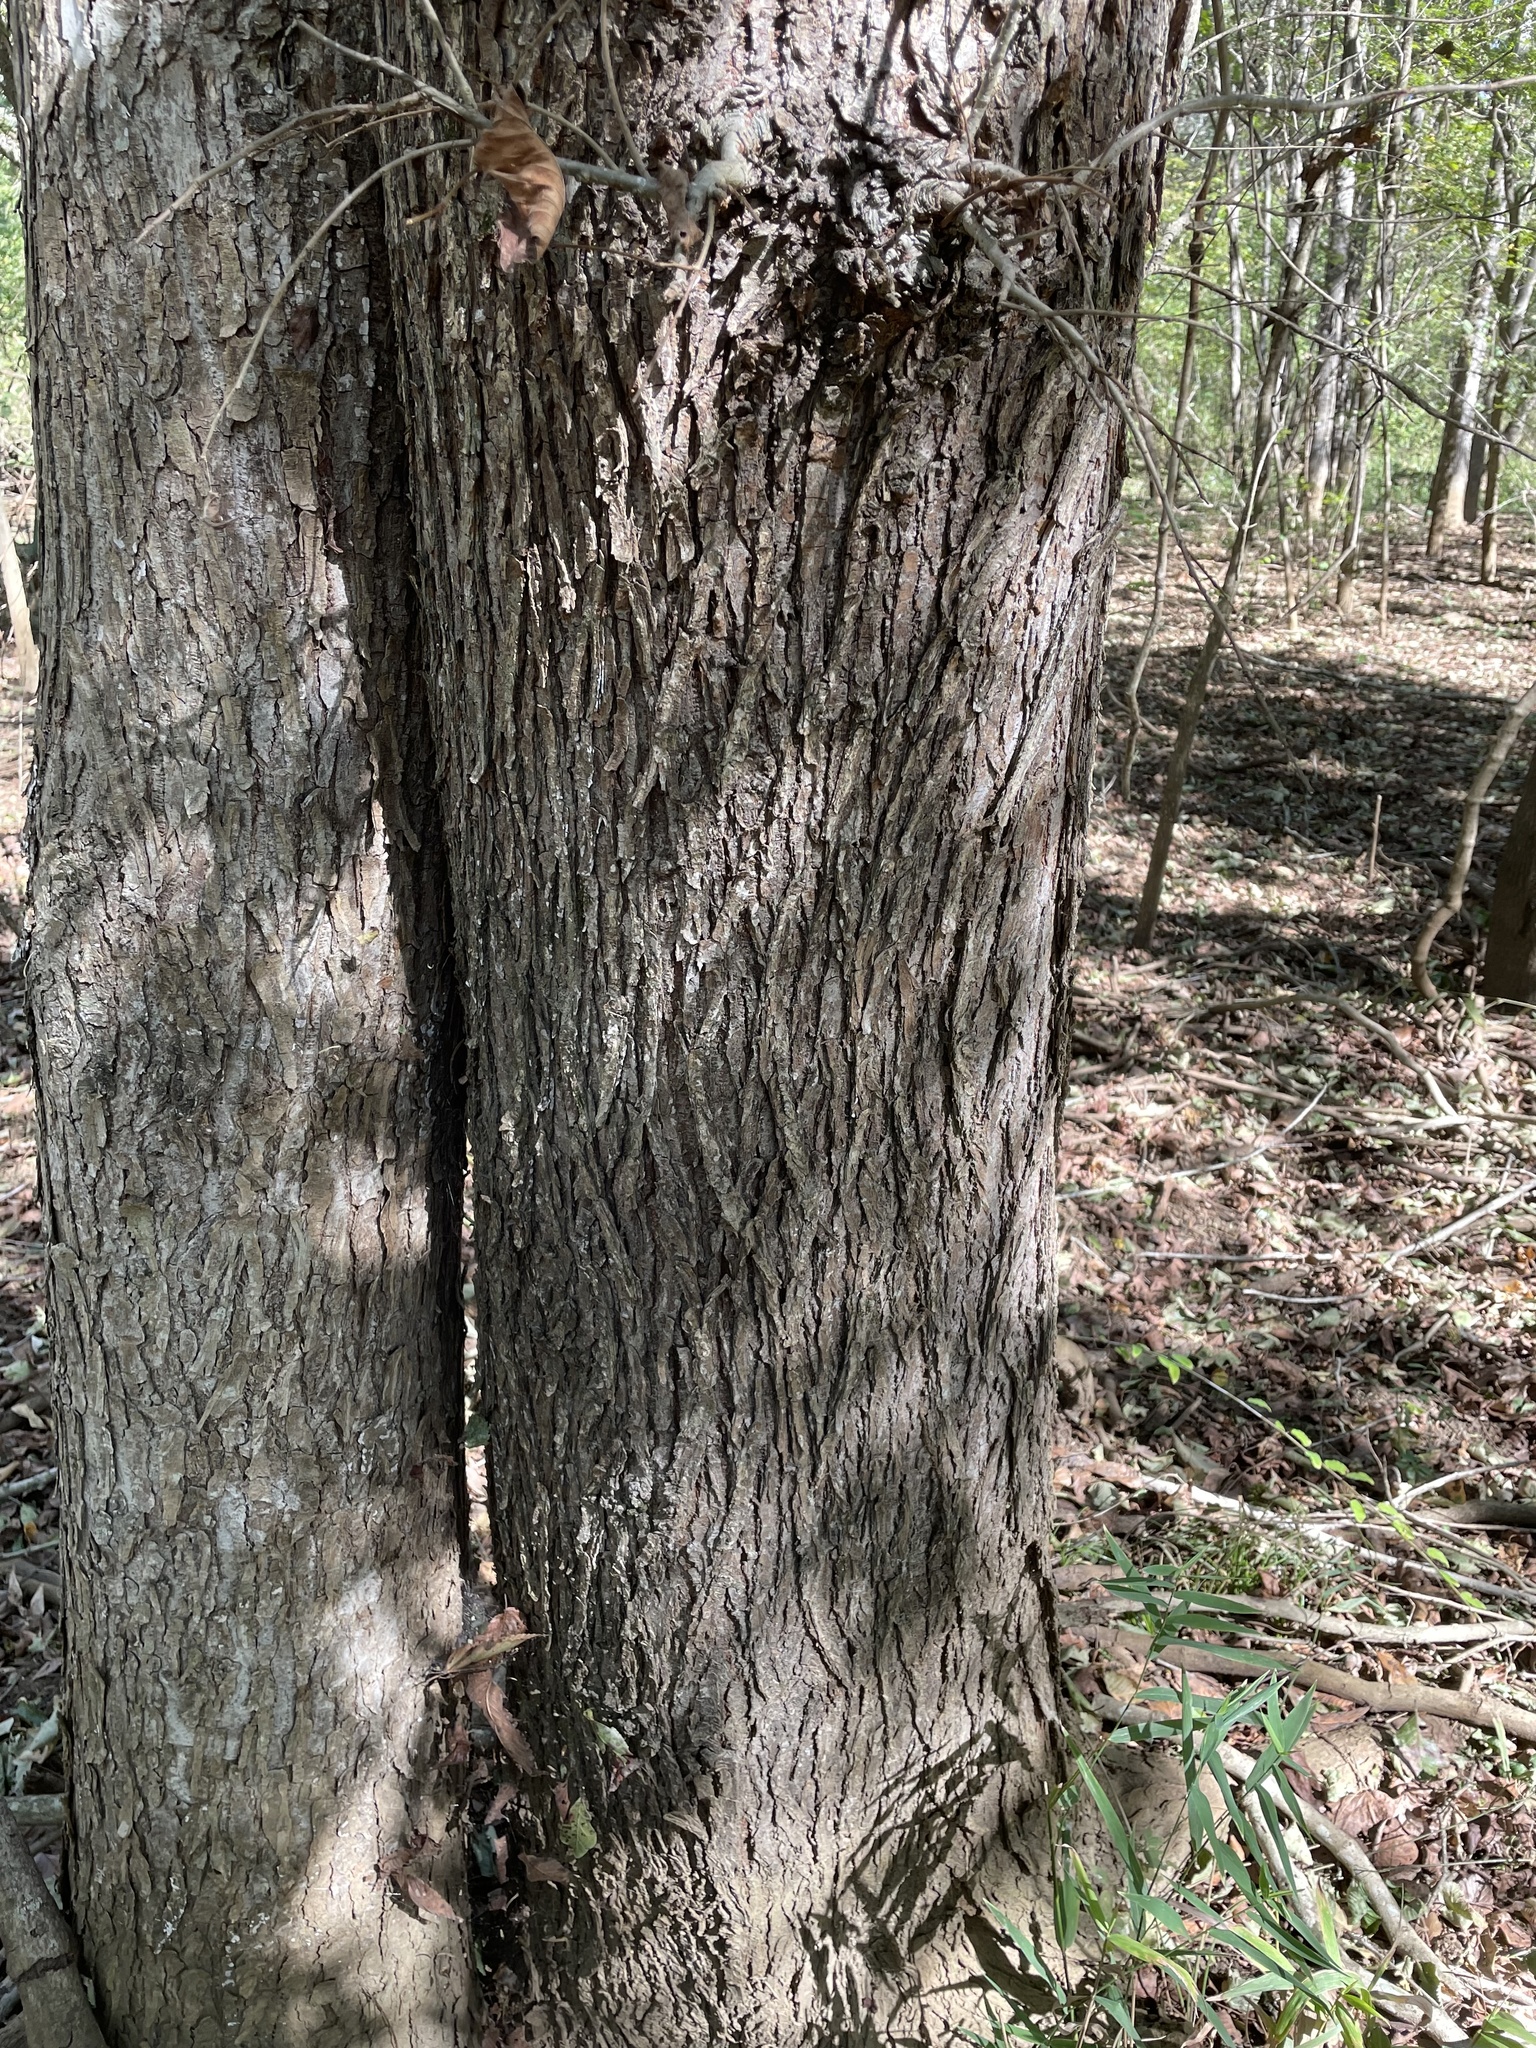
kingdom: Plantae
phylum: Tracheophyta
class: Magnoliopsida
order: Rosales
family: Ulmaceae
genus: Ulmus
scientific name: Ulmus americana
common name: American elm
